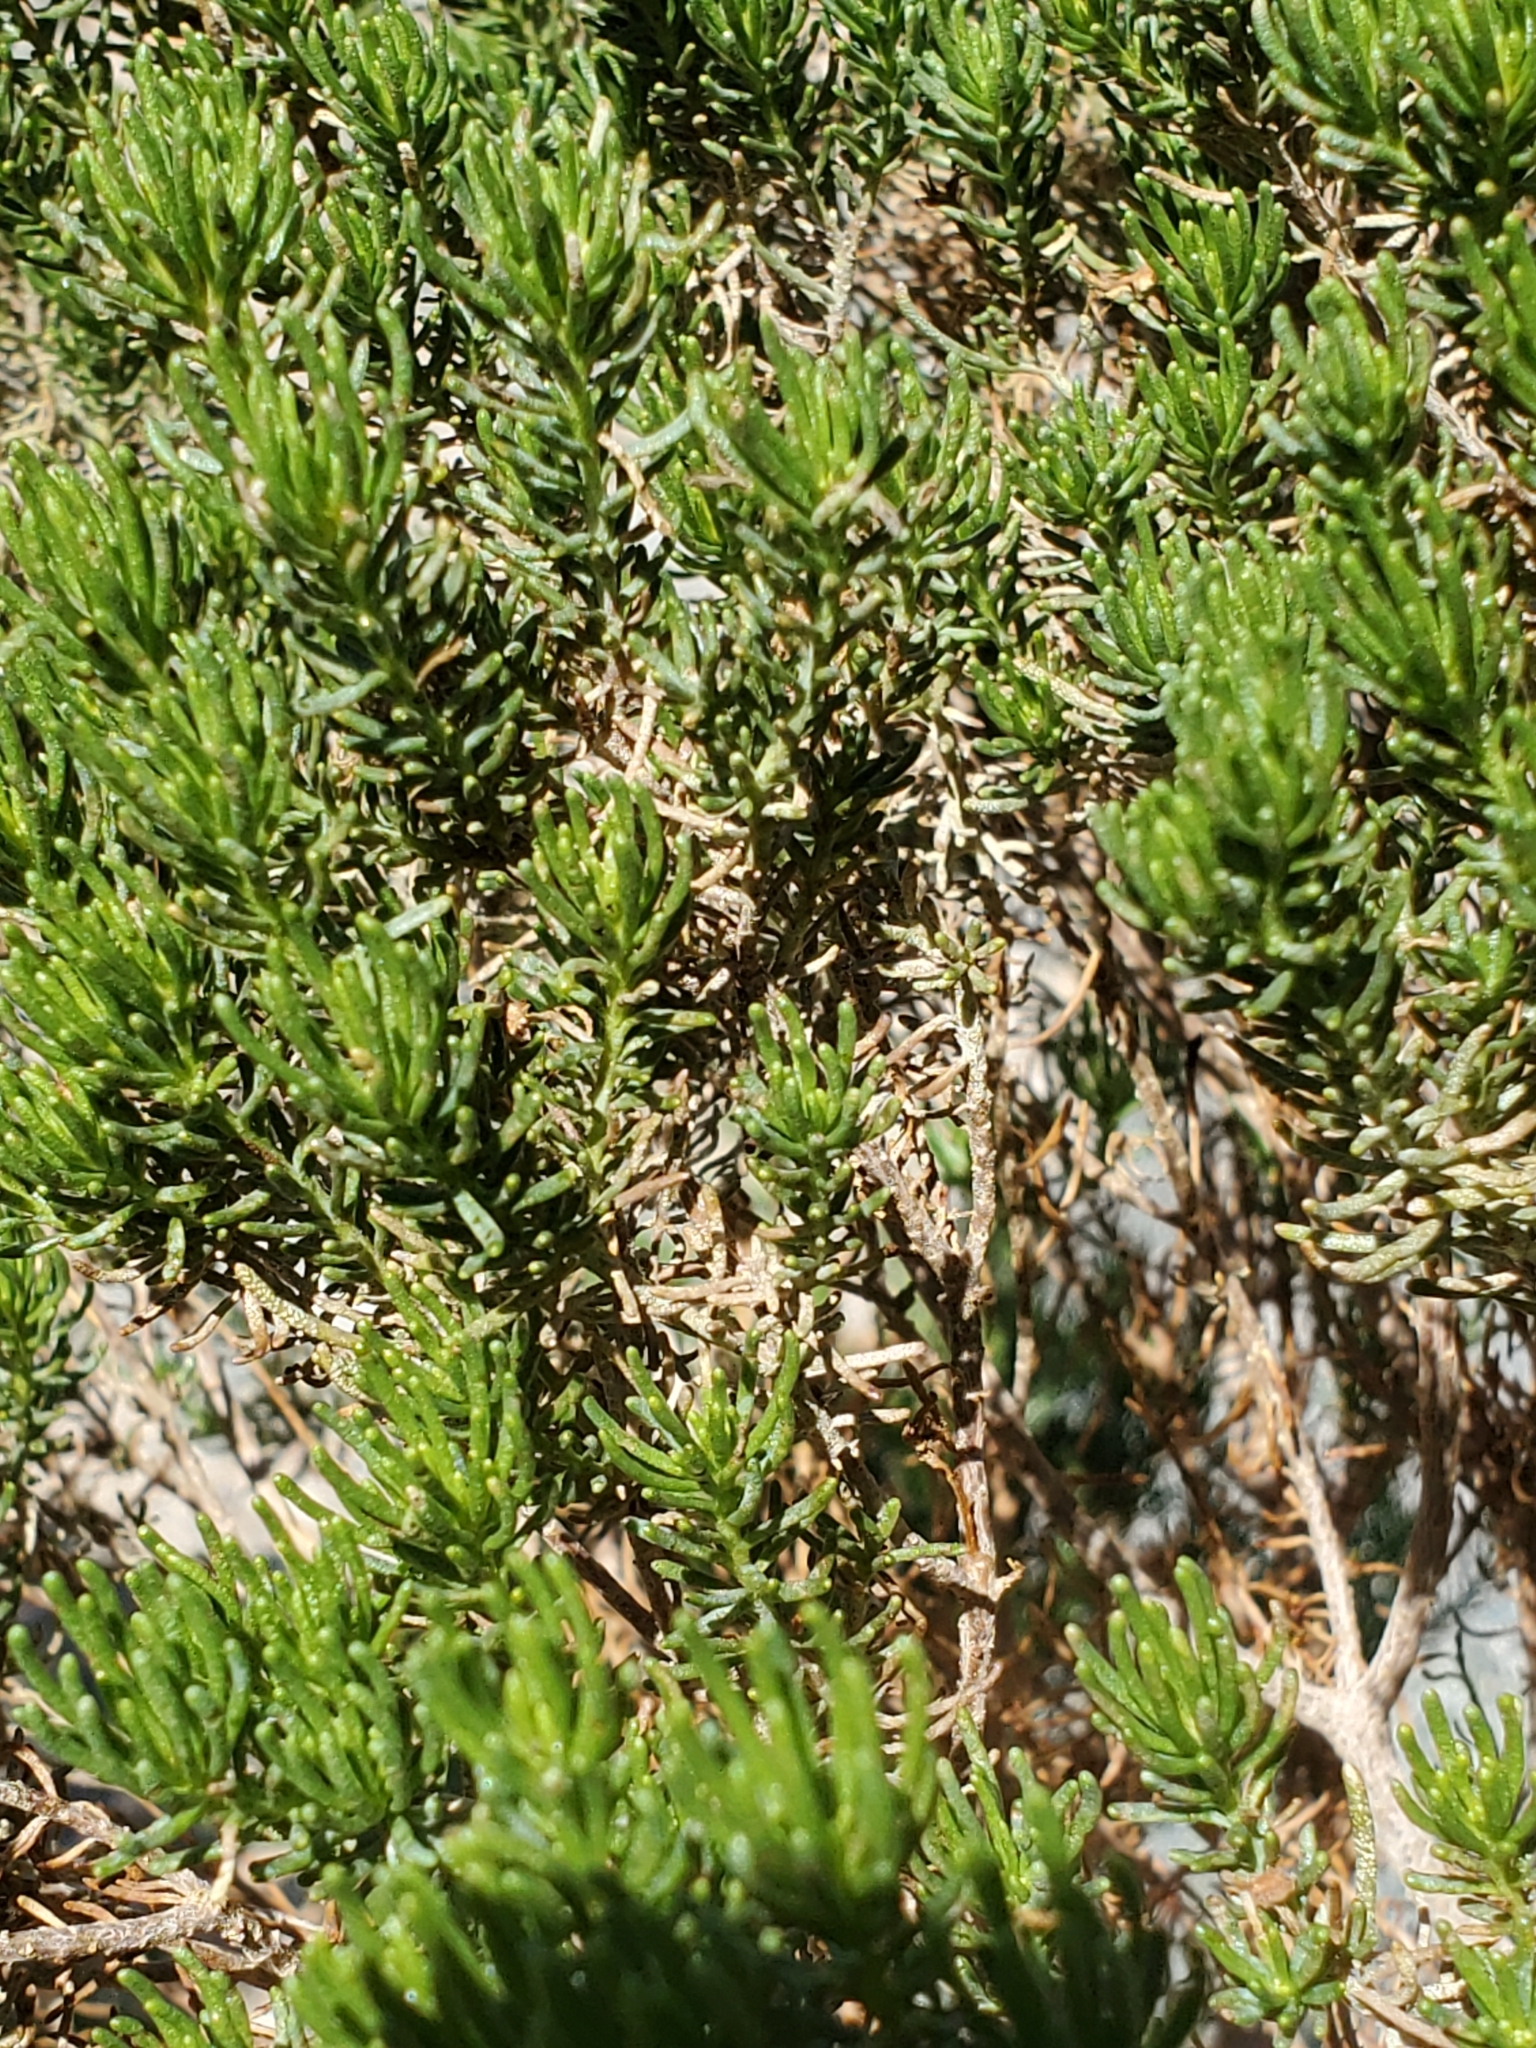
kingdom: Plantae
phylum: Tracheophyta
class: Magnoliopsida
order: Asterales
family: Asteraceae
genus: Peucephyllum
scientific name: Peucephyllum schottii
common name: Pygmy-cedar
